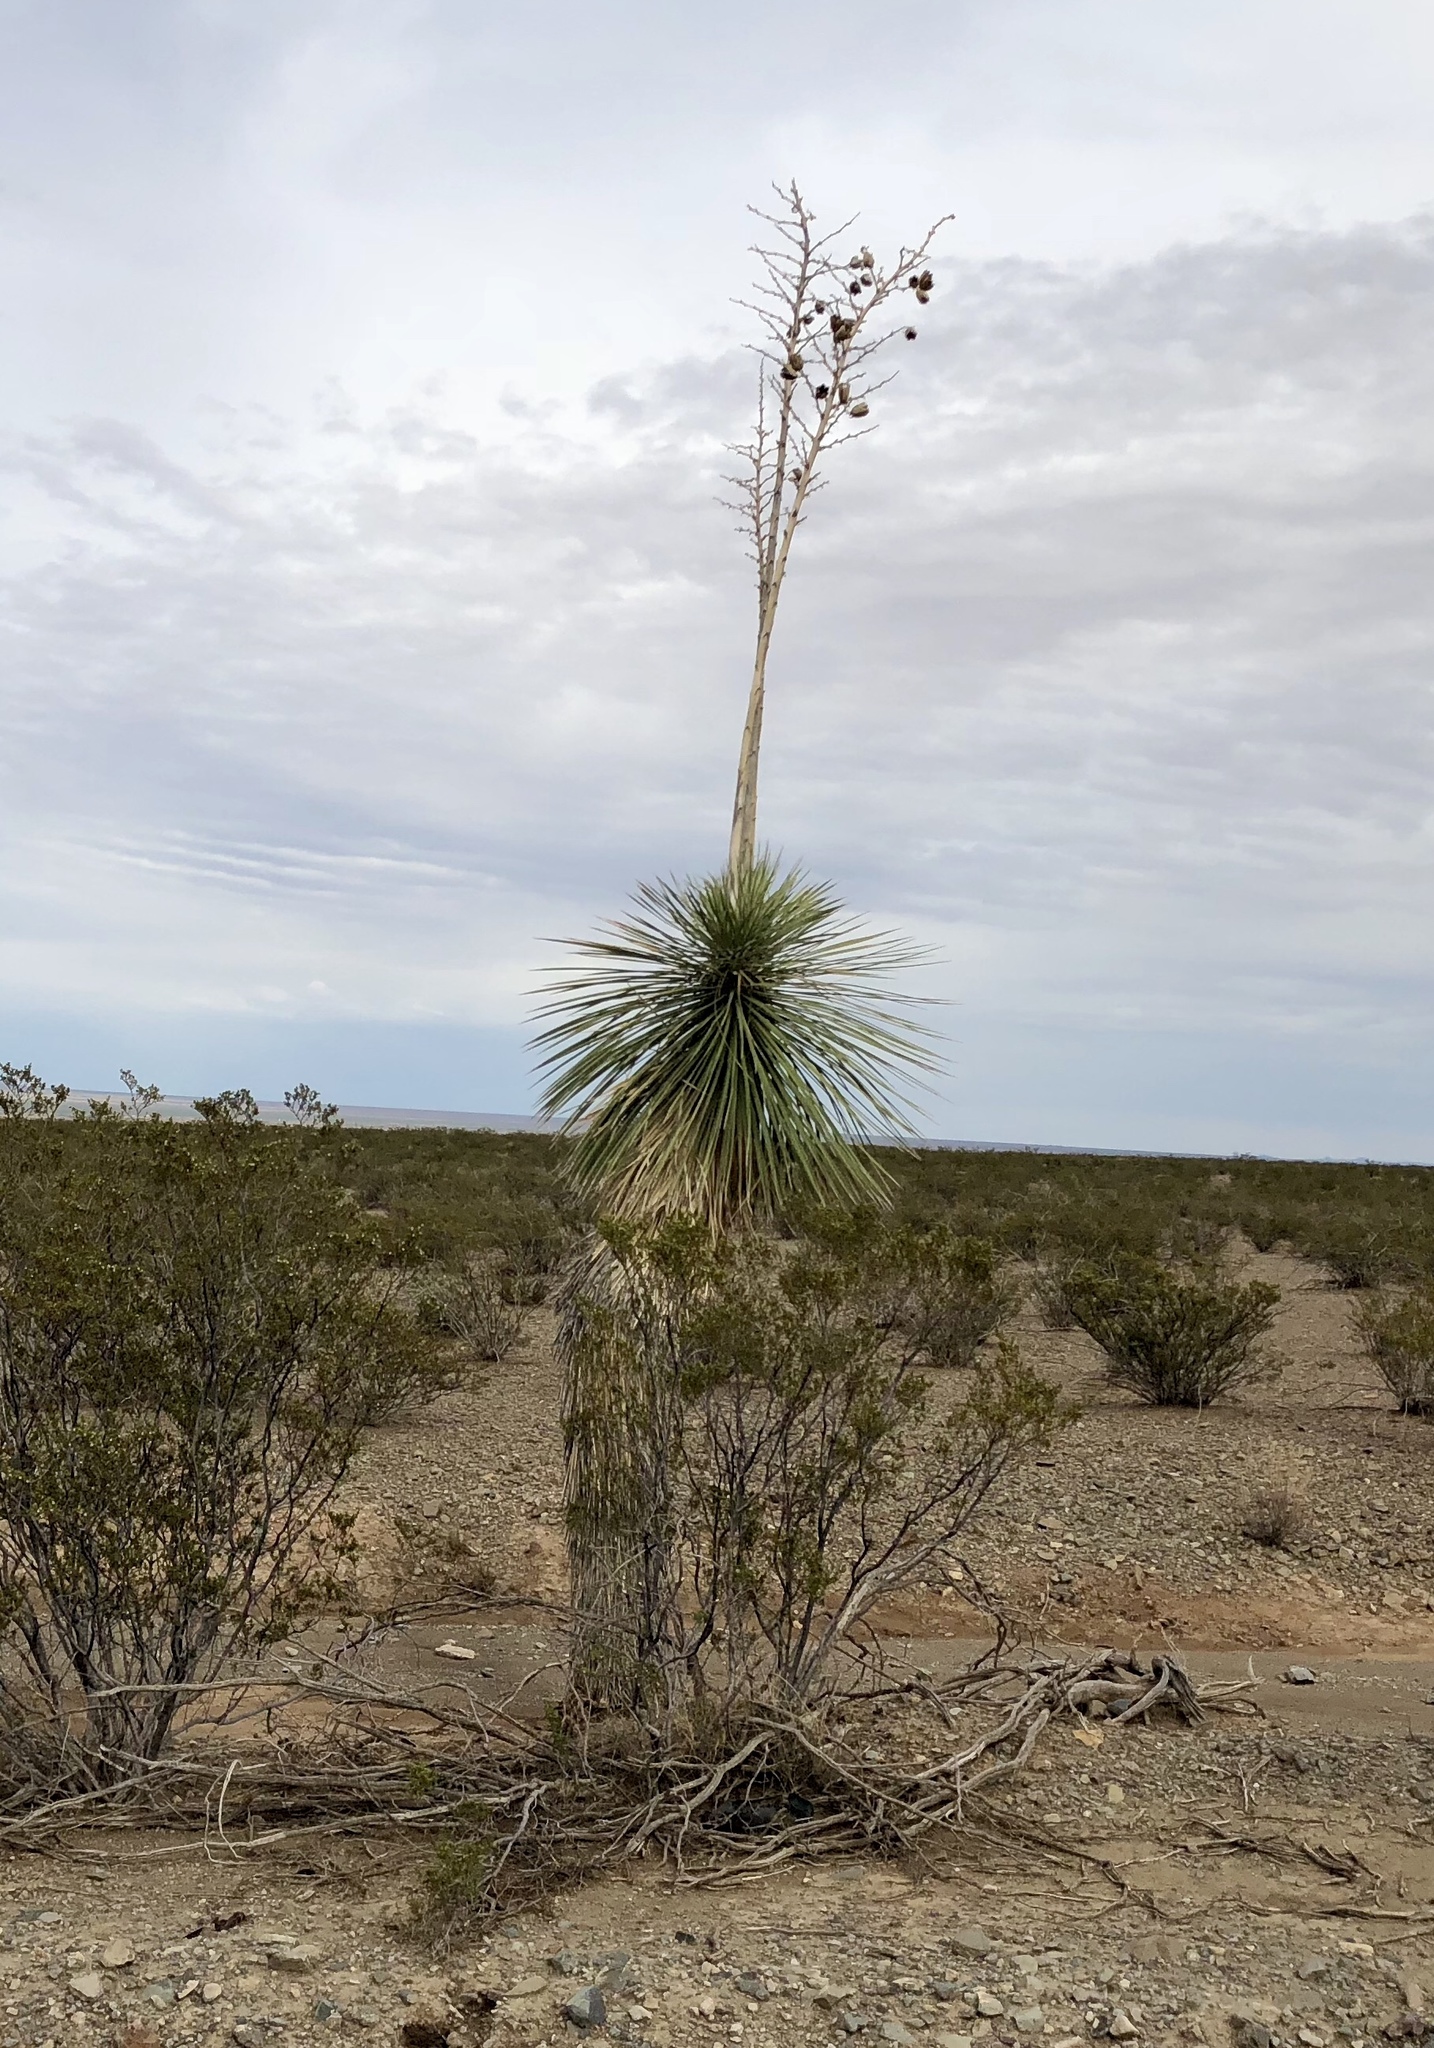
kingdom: Plantae
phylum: Tracheophyta
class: Liliopsida
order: Asparagales
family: Asparagaceae
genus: Yucca
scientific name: Yucca elata
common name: Palmella
